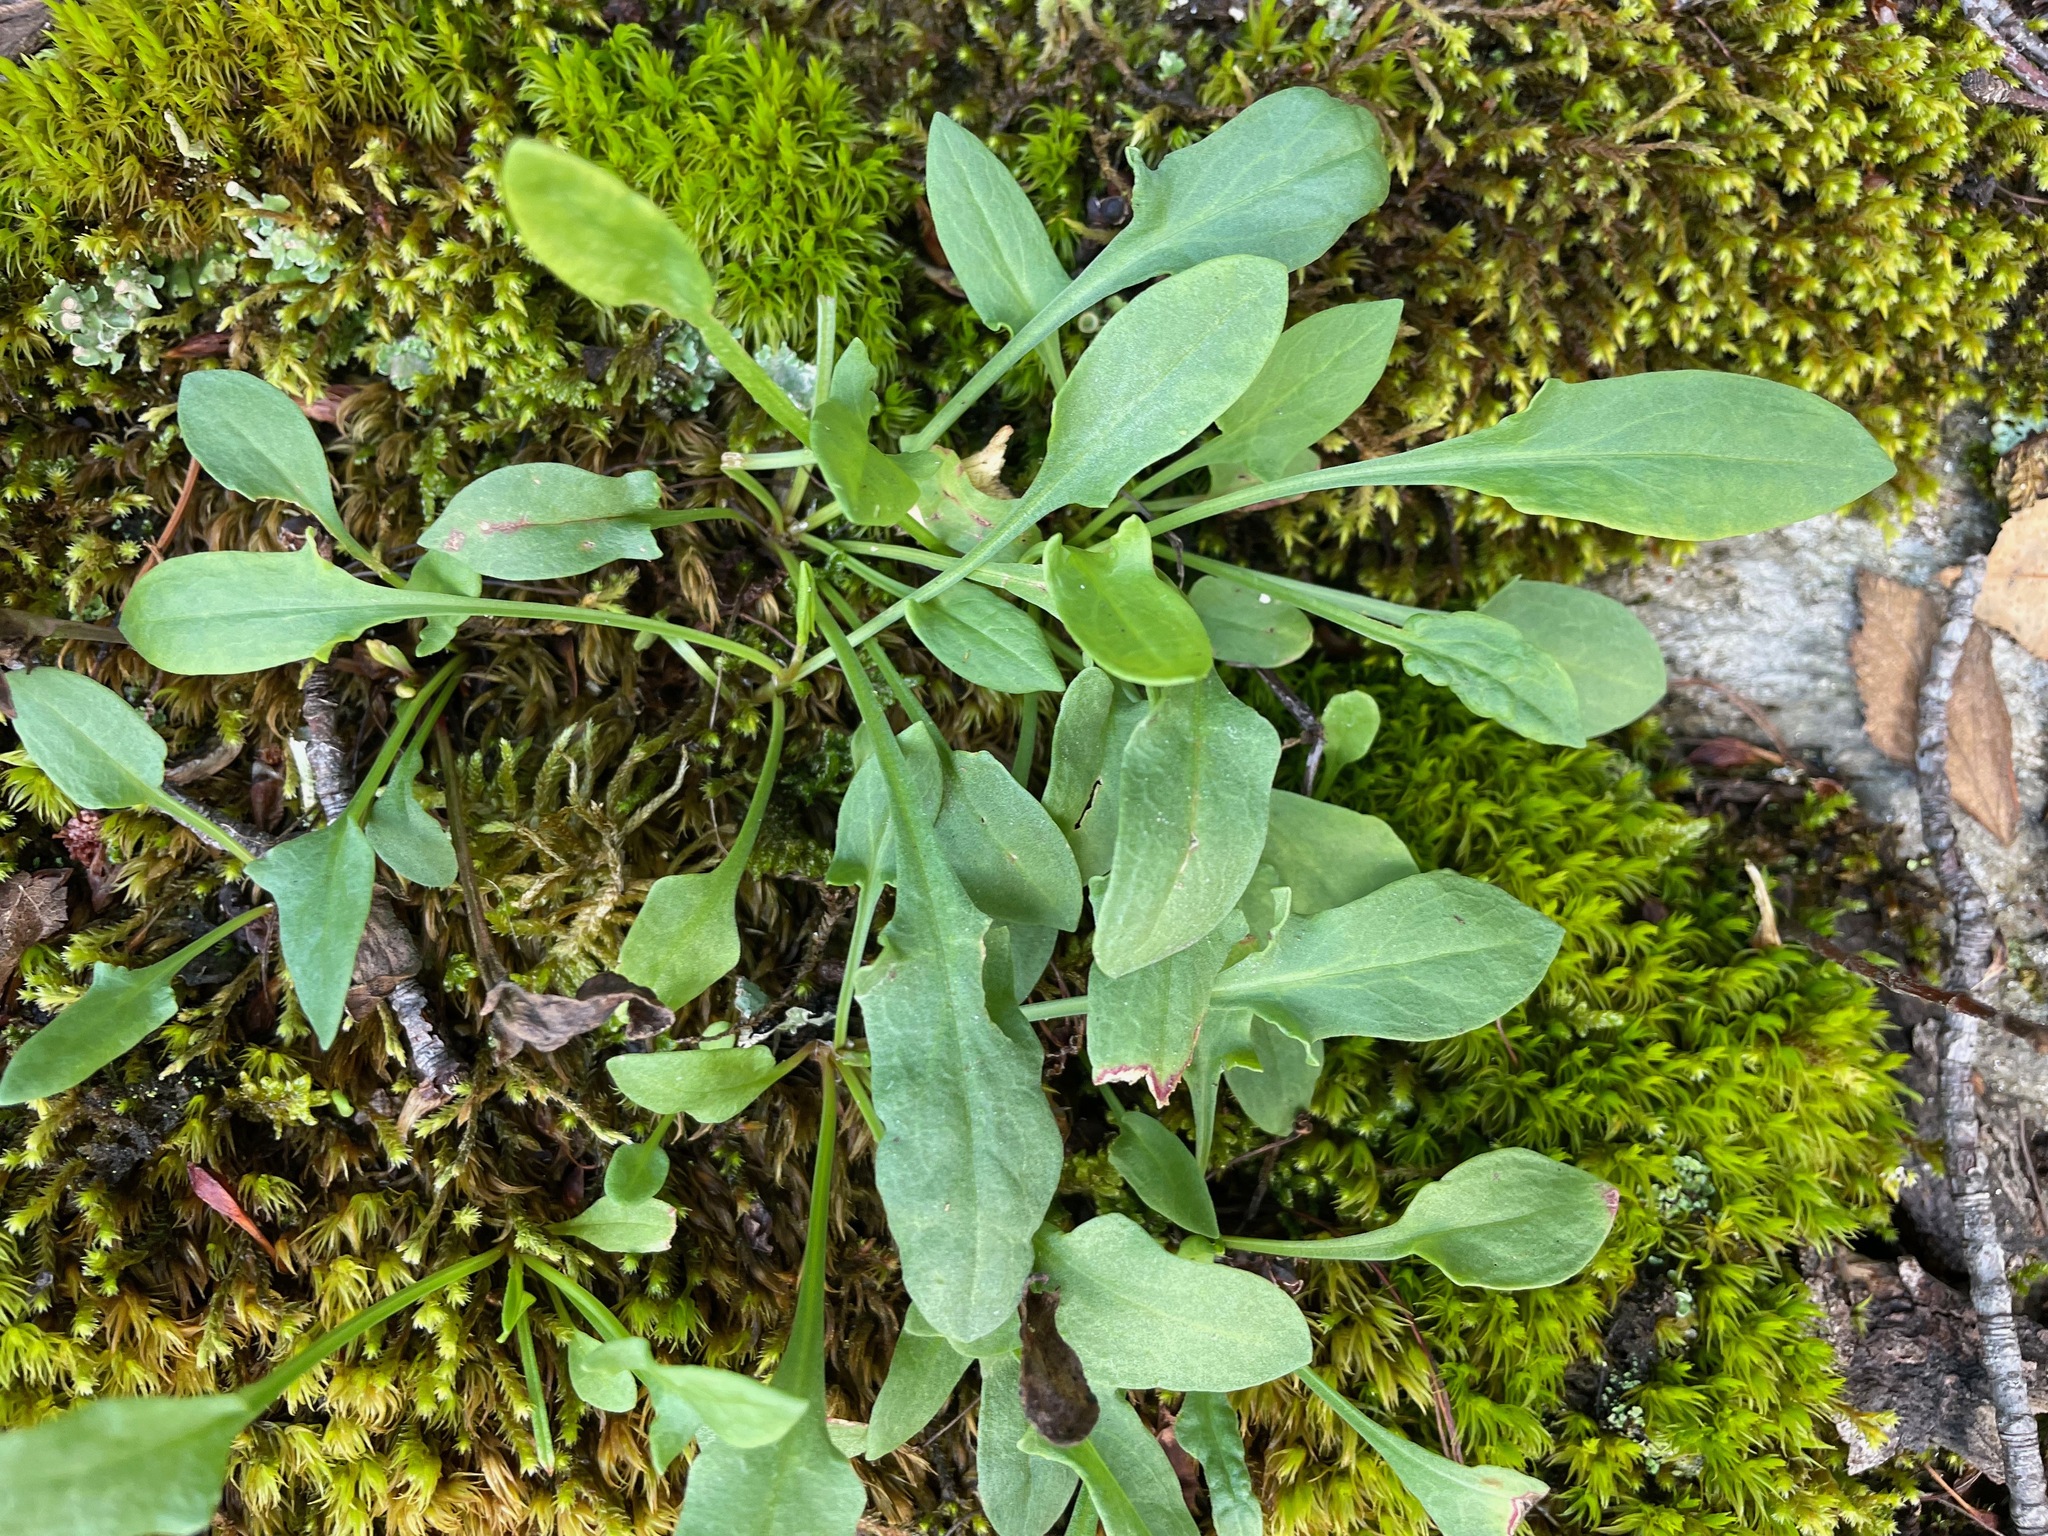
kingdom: Plantae
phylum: Tracheophyta
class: Magnoliopsida
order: Caryophyllales
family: Polygonaceae
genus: Rumex
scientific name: Rumex acetosella
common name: Common sheep sorrel
